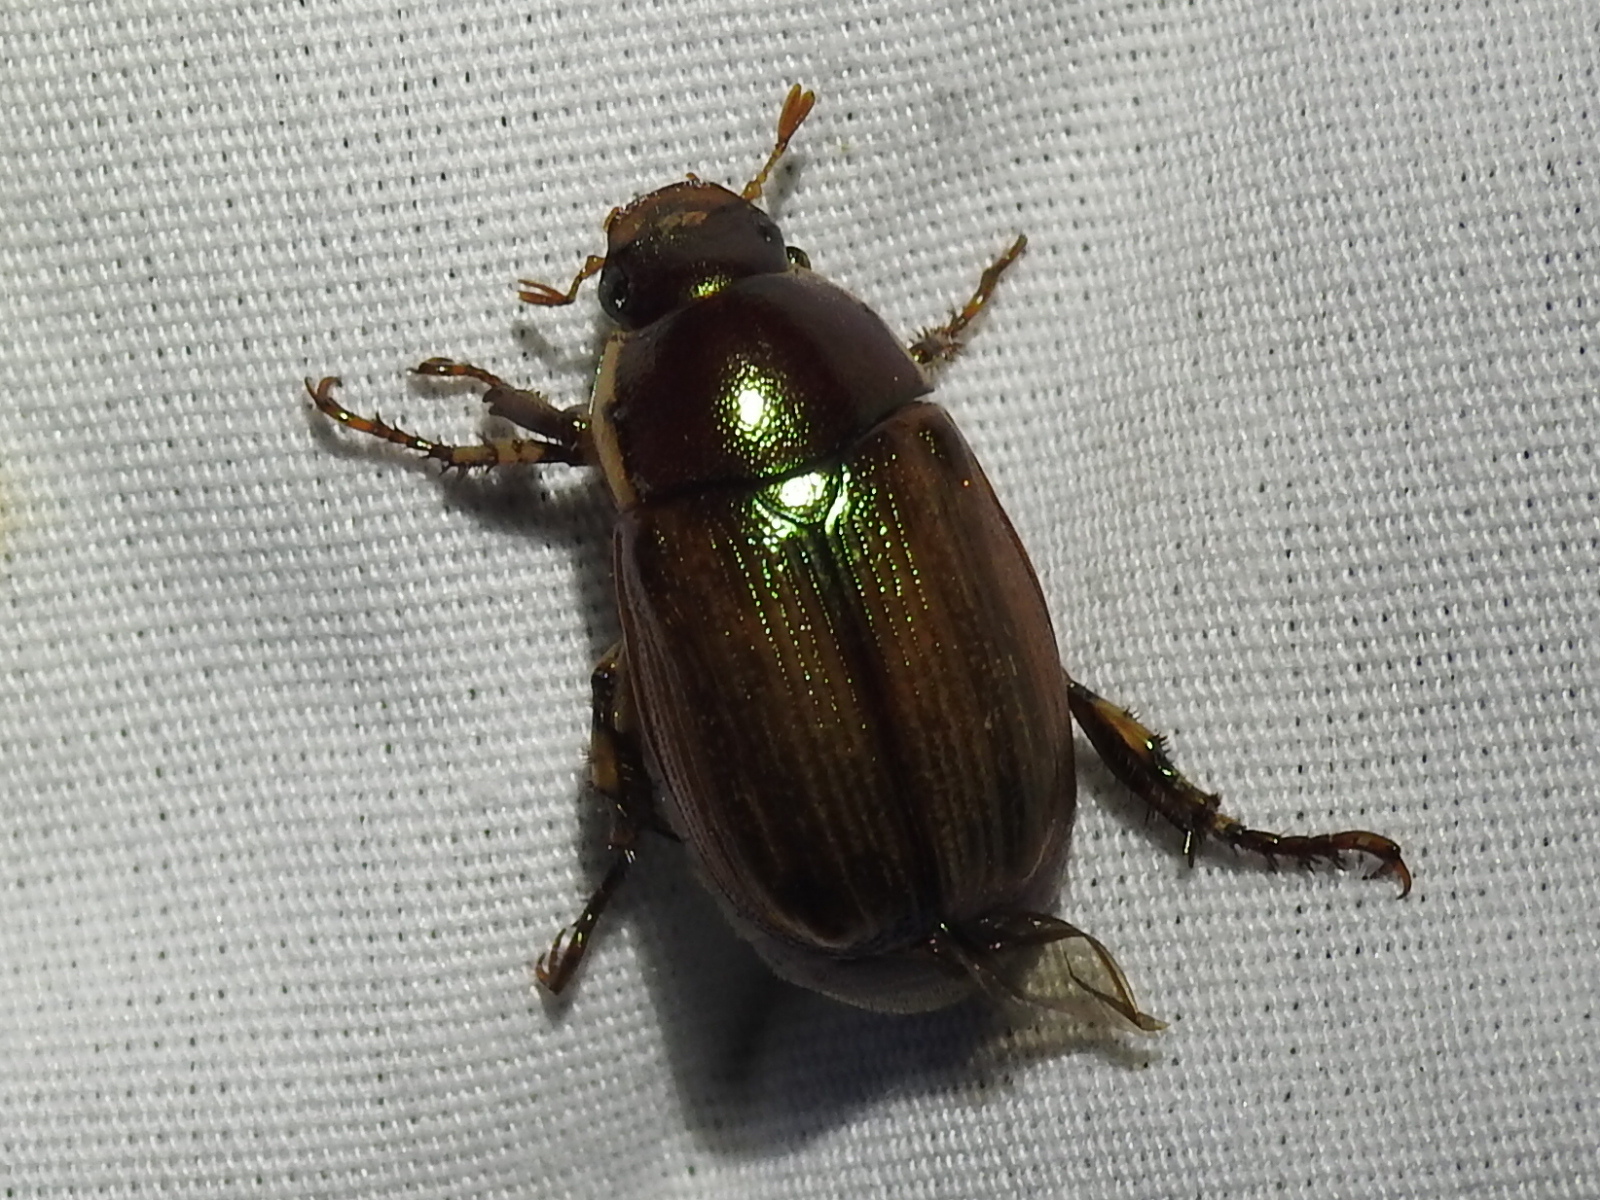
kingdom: Animalia
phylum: Arthropoda
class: Insecta
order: Coleoptera
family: Scarabaeidae
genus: Callistethus
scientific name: Callistethus marginatus
